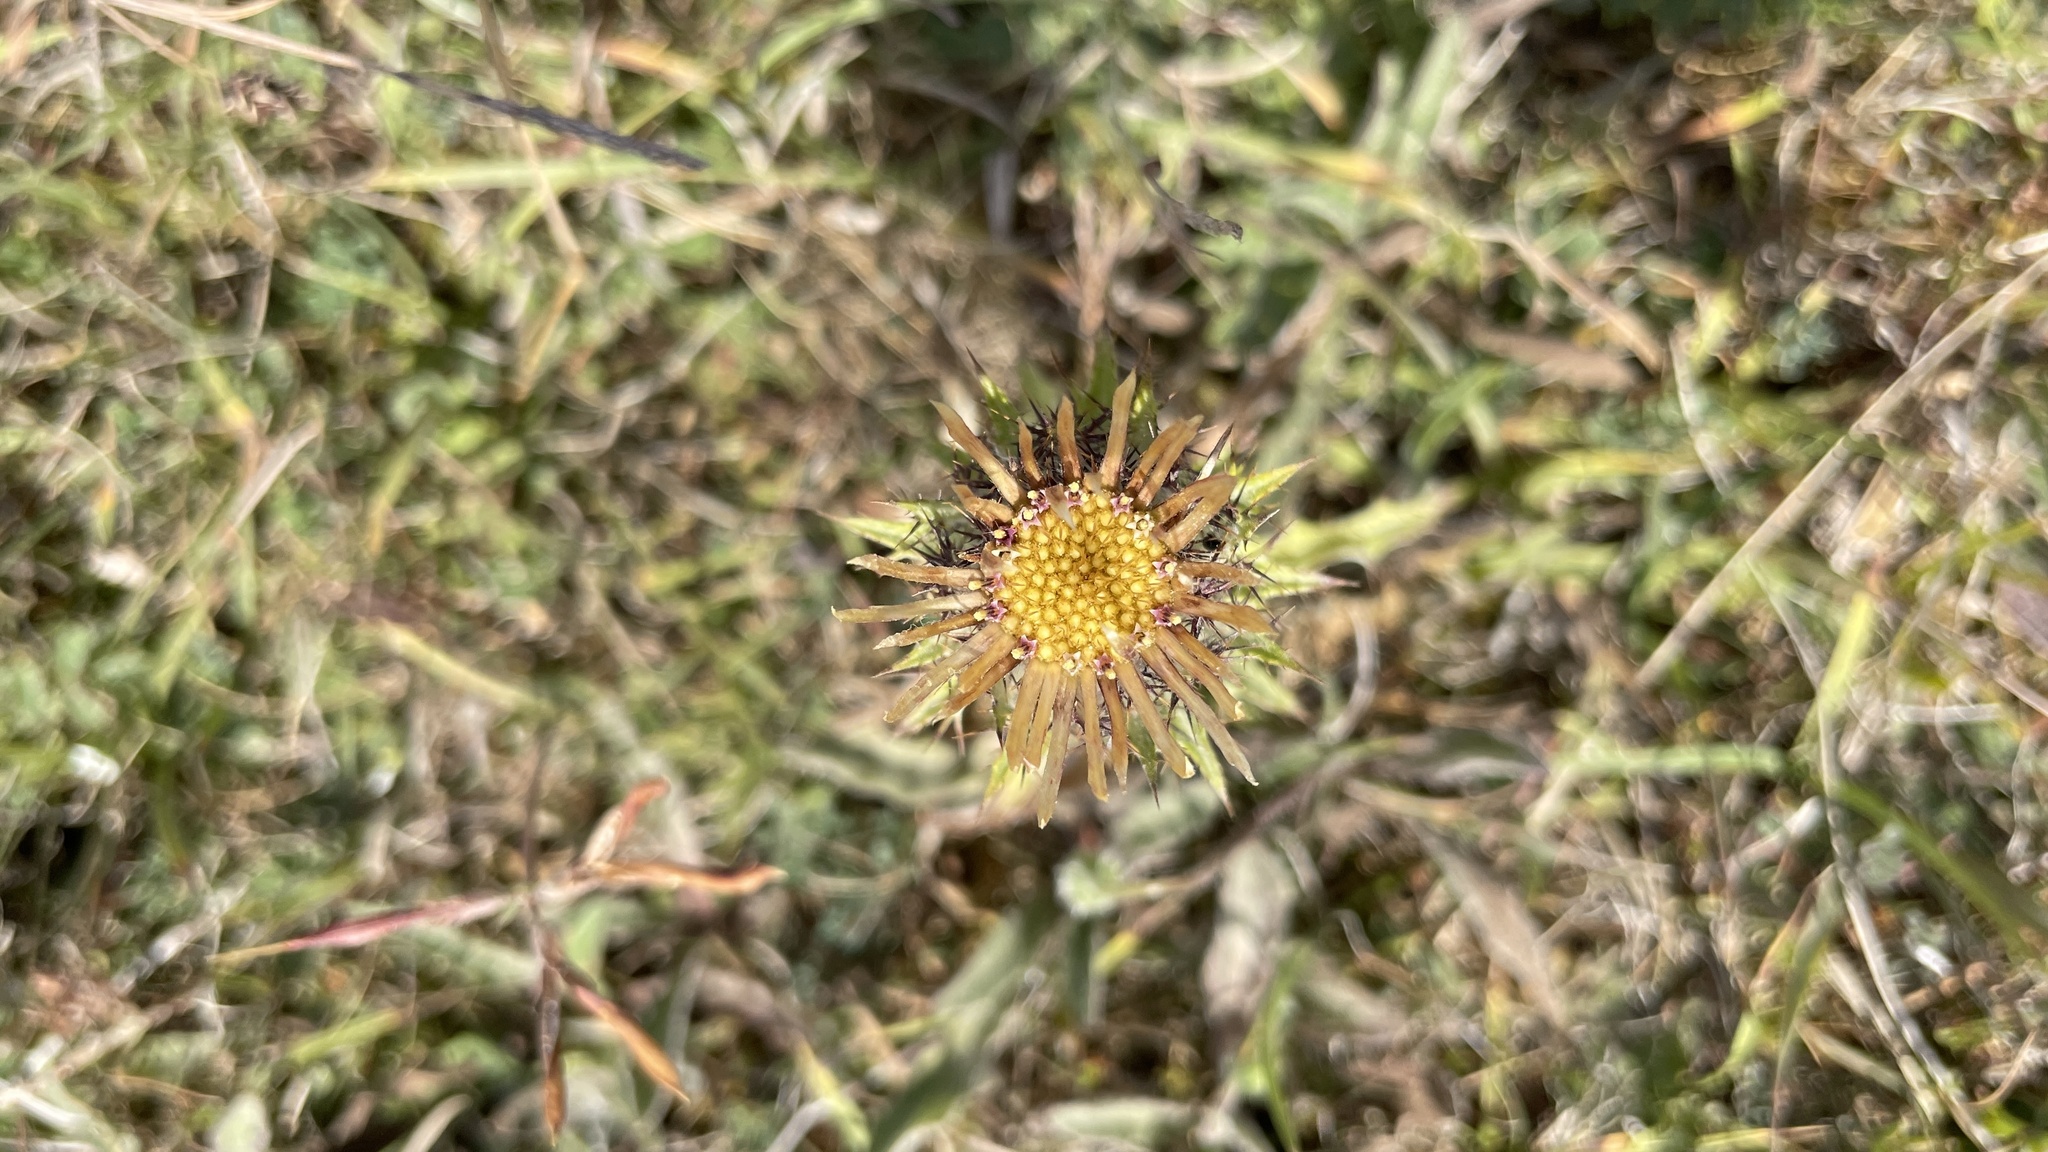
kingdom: Plantae
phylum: Tracheophyta
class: Magnoliopsida
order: Asterales
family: Asteraceae
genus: Carlina
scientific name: Carlina vulgaris
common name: Carline thistle
